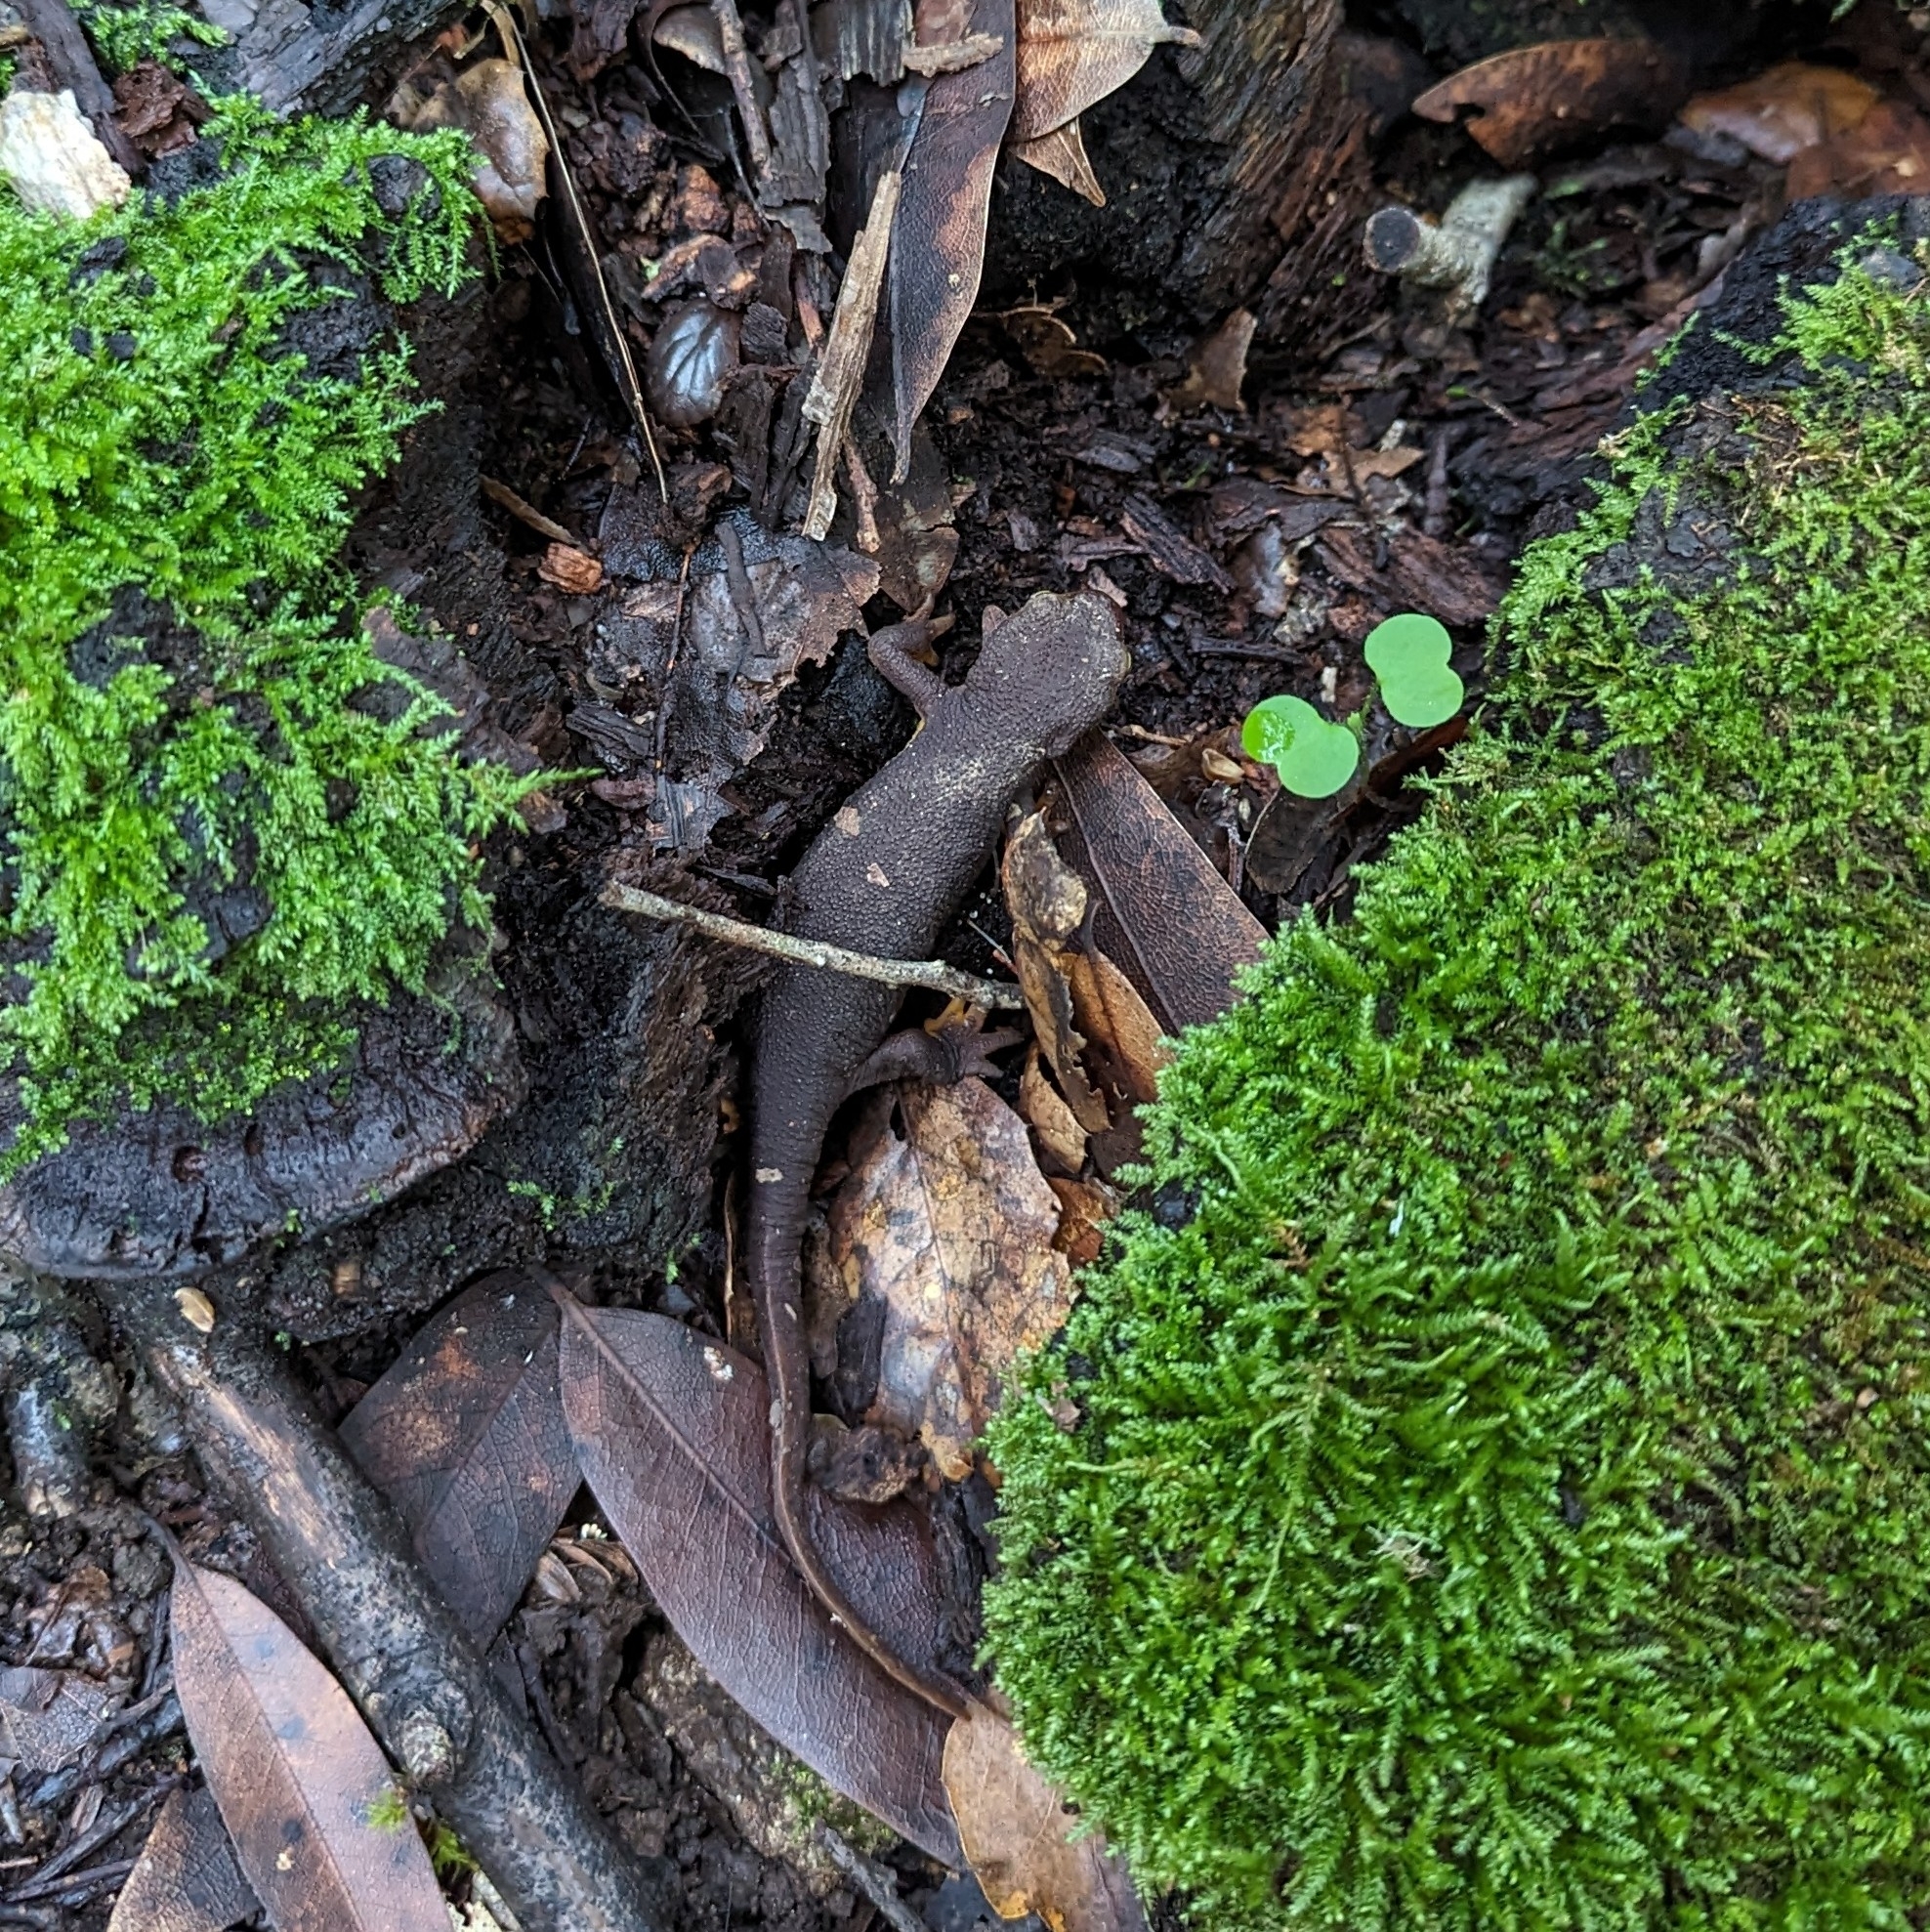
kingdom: Animalia
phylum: Chordata
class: Amphibia
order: Caudata
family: Salamandridae
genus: Taricha
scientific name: Taricha torosa
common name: California newt
